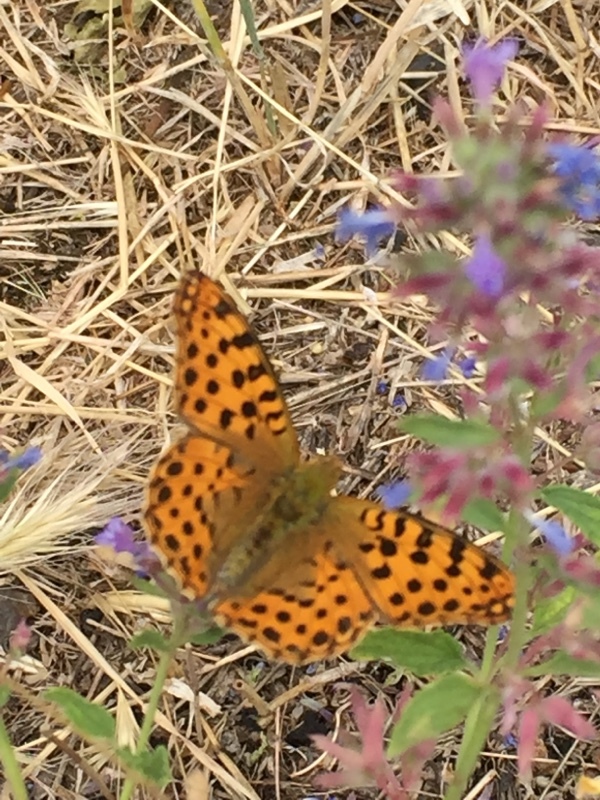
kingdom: Animalia
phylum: Arthropoda
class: Insecta
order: Lepidoptera
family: Nymphalidae
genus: Issoria
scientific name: Issoria lathonia
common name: Queen of spain fritillary
